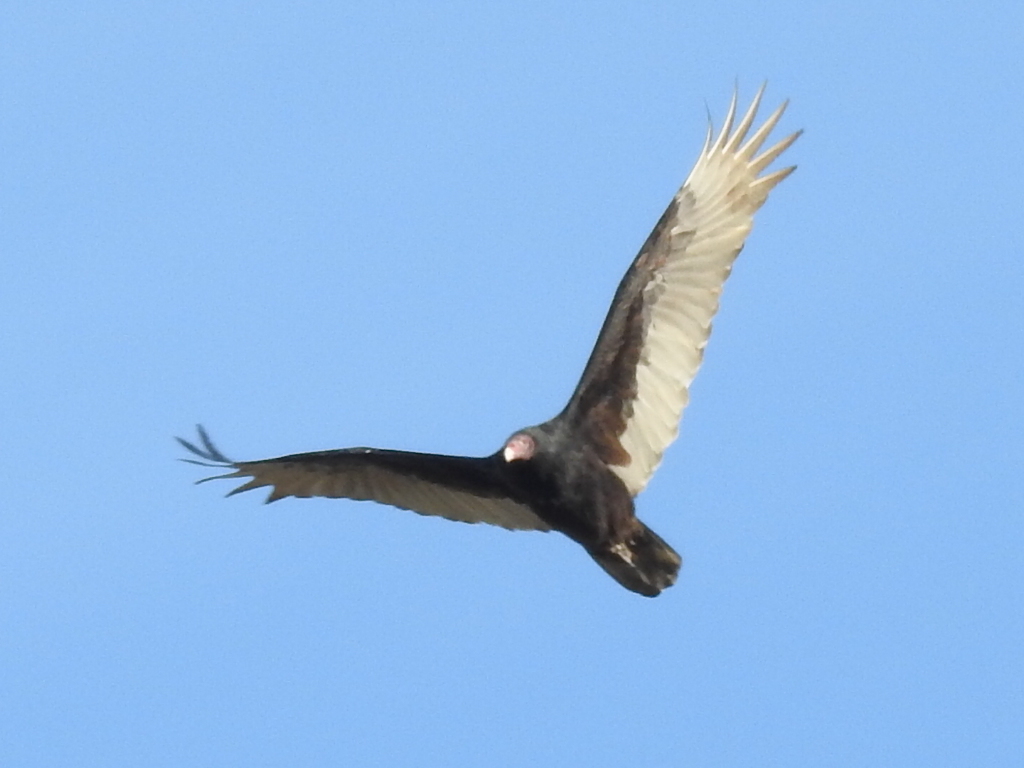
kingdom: Animalia
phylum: Chordata
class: Aves
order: Accipitriformes
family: Cathartidae
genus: Cathartes
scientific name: Cathartes aura
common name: Turkey vulture
